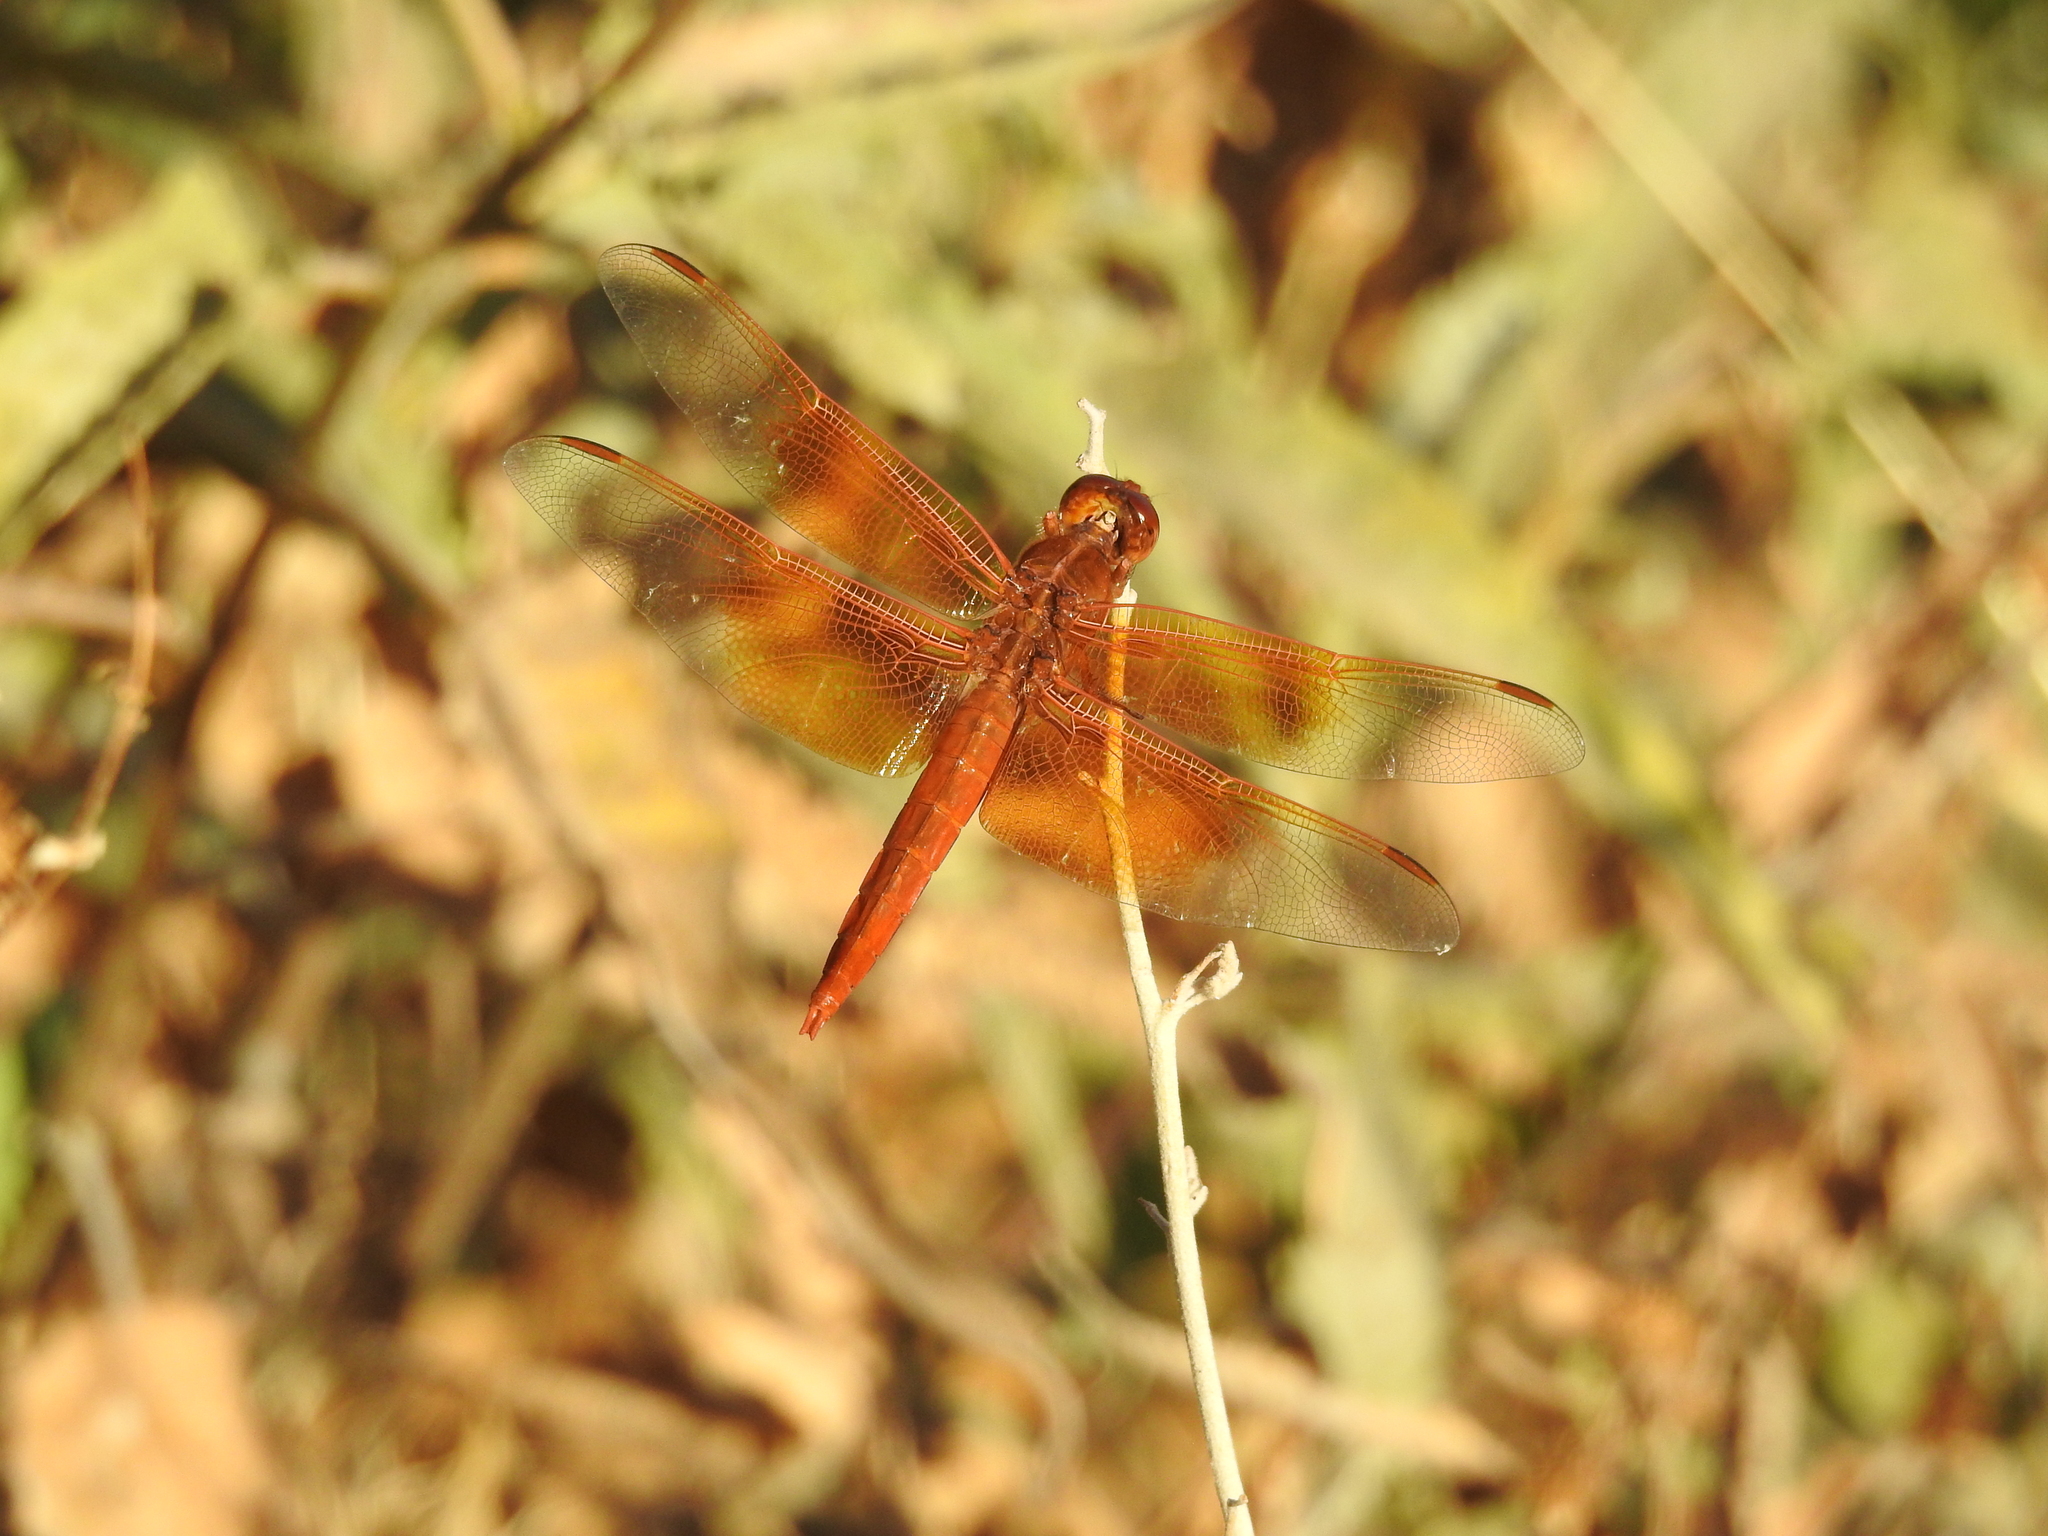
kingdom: Animalia
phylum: Arthropoda
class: Insecta
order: Odonata
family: Libellulidae
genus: Libellula
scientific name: Libellula saturata
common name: Flame skimmer
